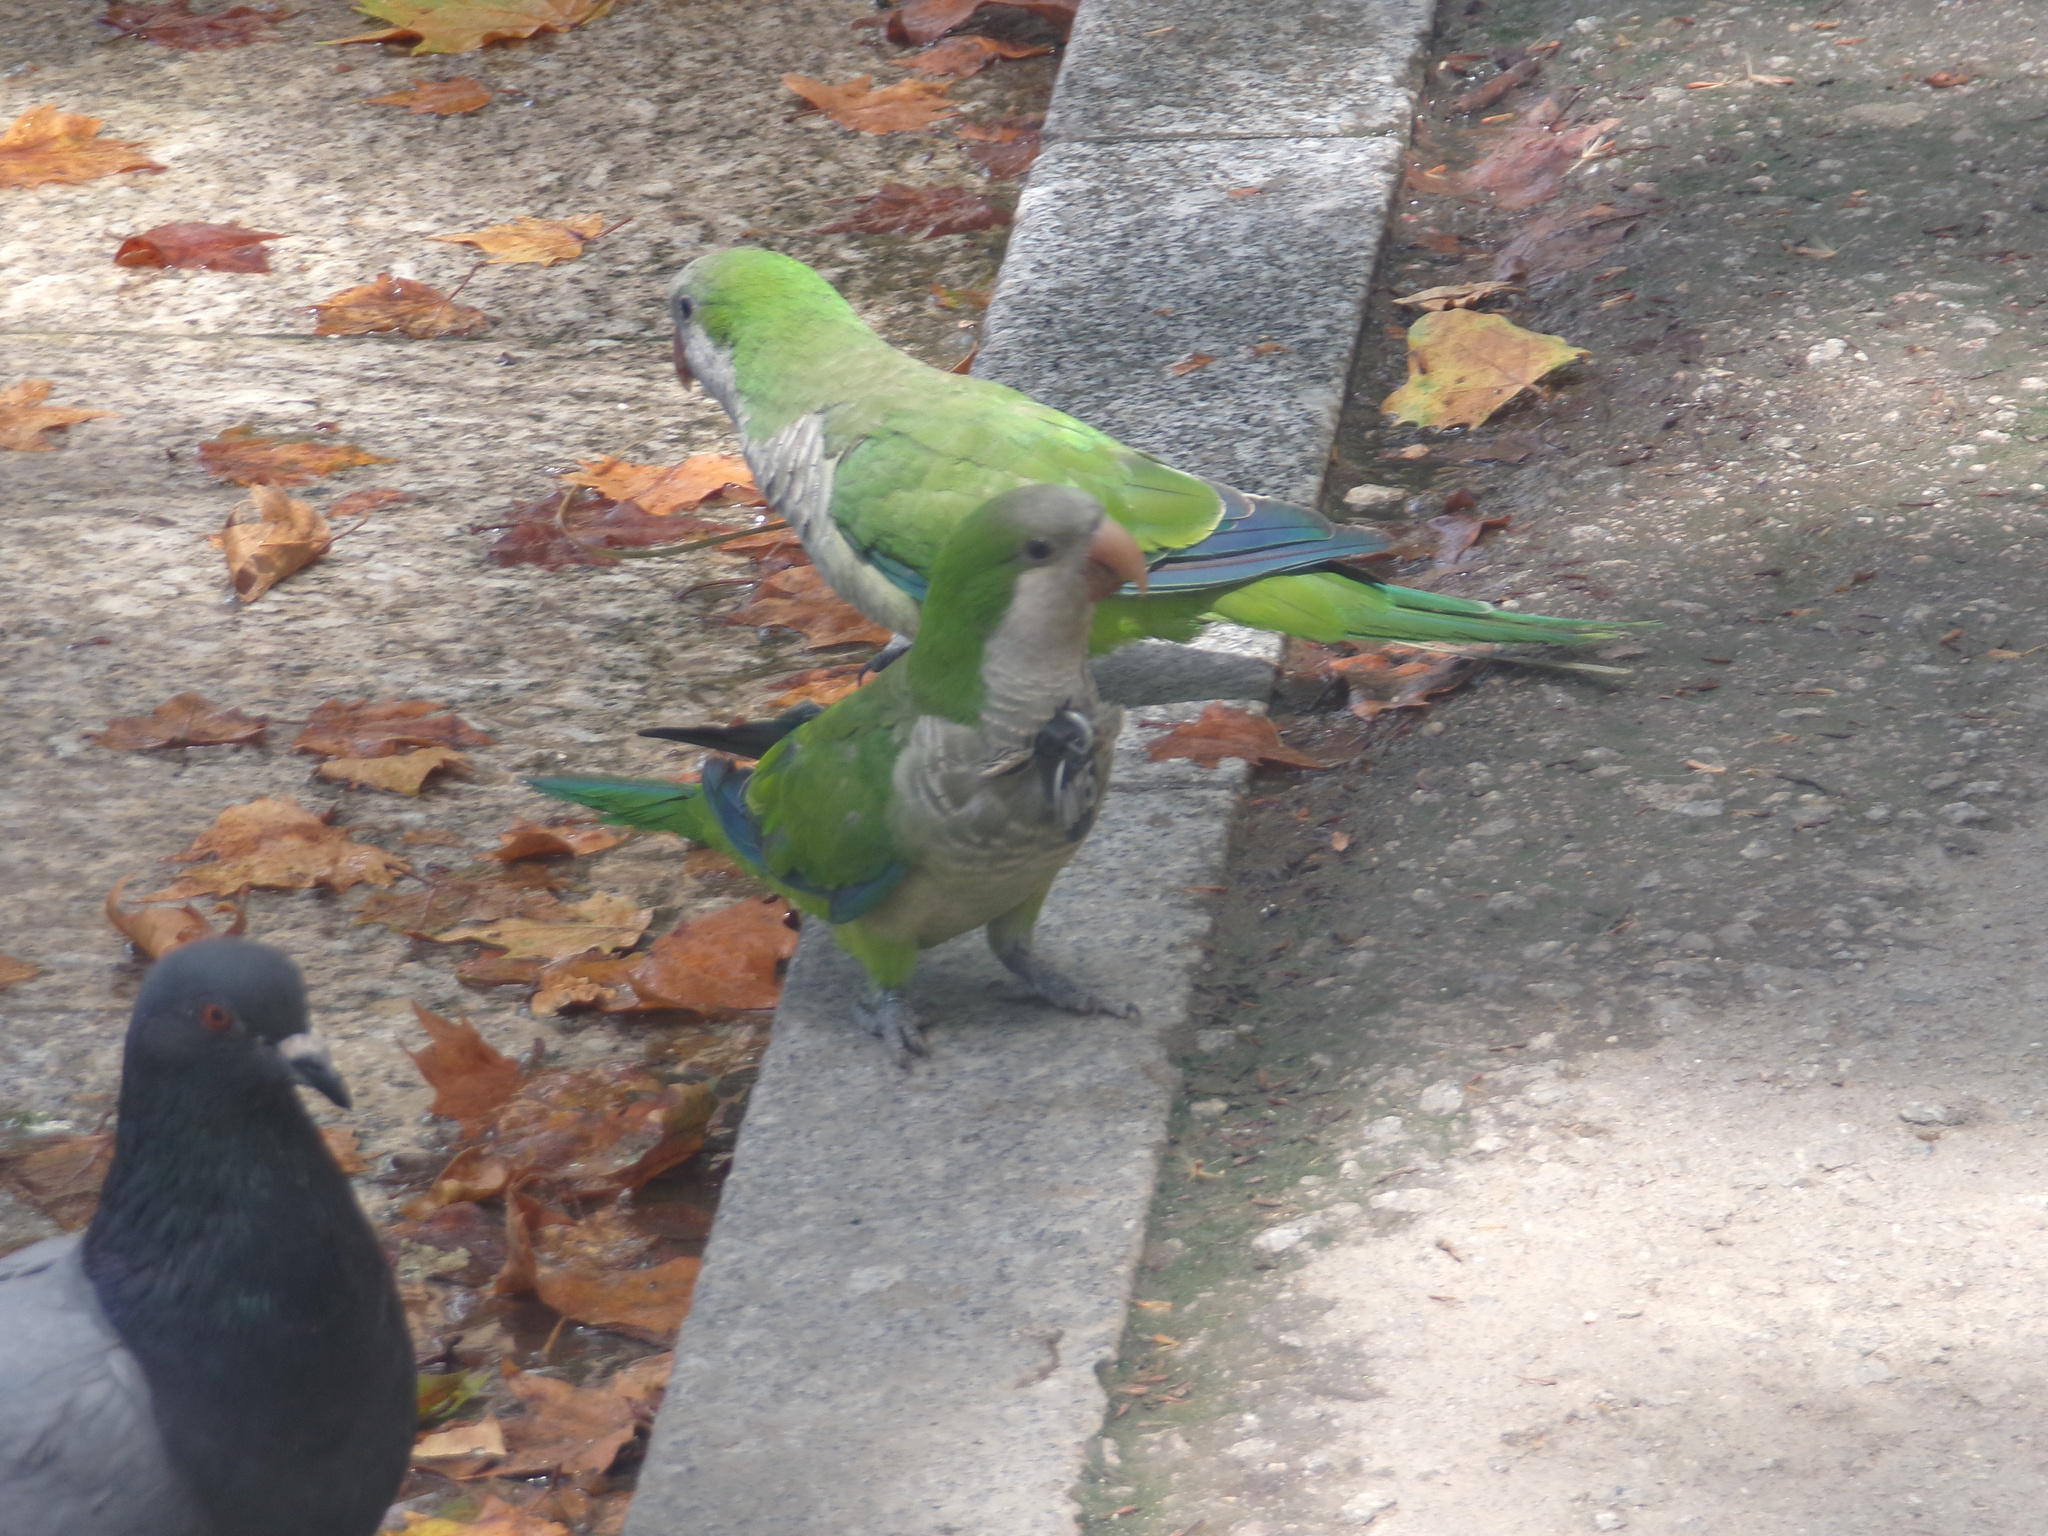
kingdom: Animalia
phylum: Chordata
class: Aves
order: Psittaciformes
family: Psittacidae
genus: Myiopsitta
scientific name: Myiopsitta monachus
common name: Monk parakeet
